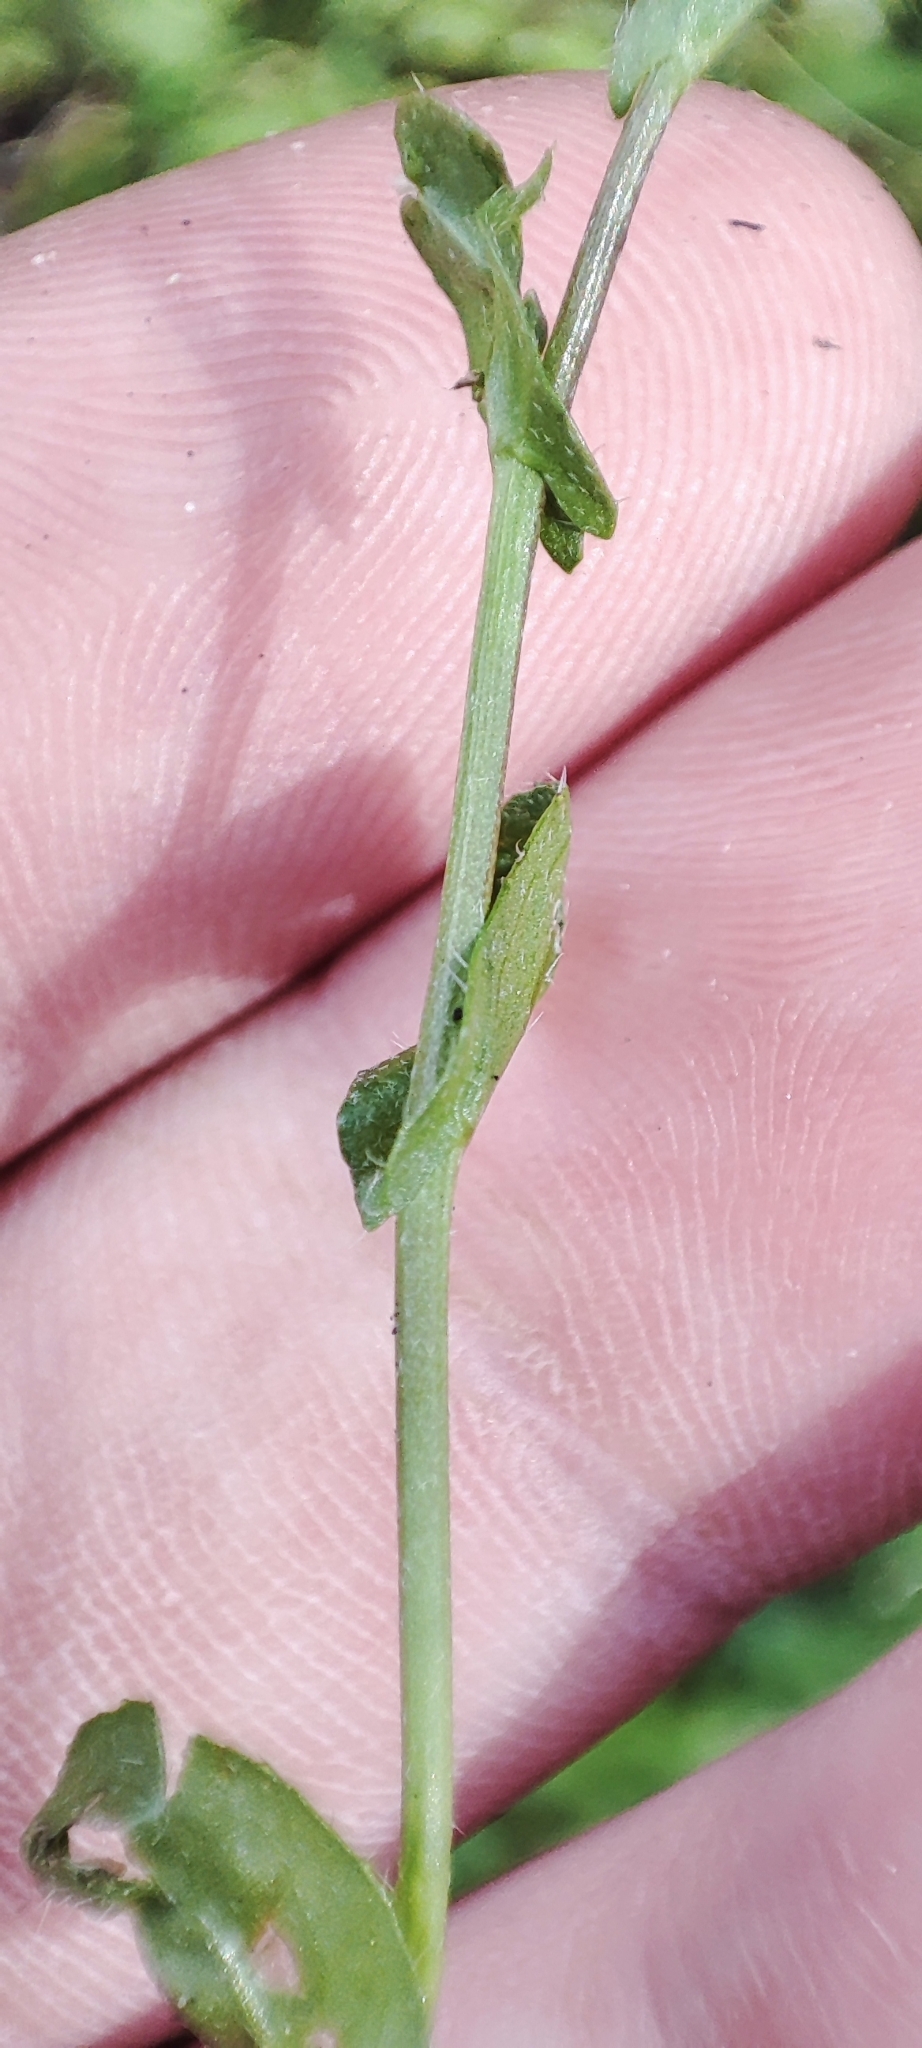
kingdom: Plantae
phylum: Tracheophyta
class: Magnoliopsida
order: Brassicales
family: Brassicaceae
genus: Capsella
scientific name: Capsella bursa-pastoris
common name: Shepherd's purse
